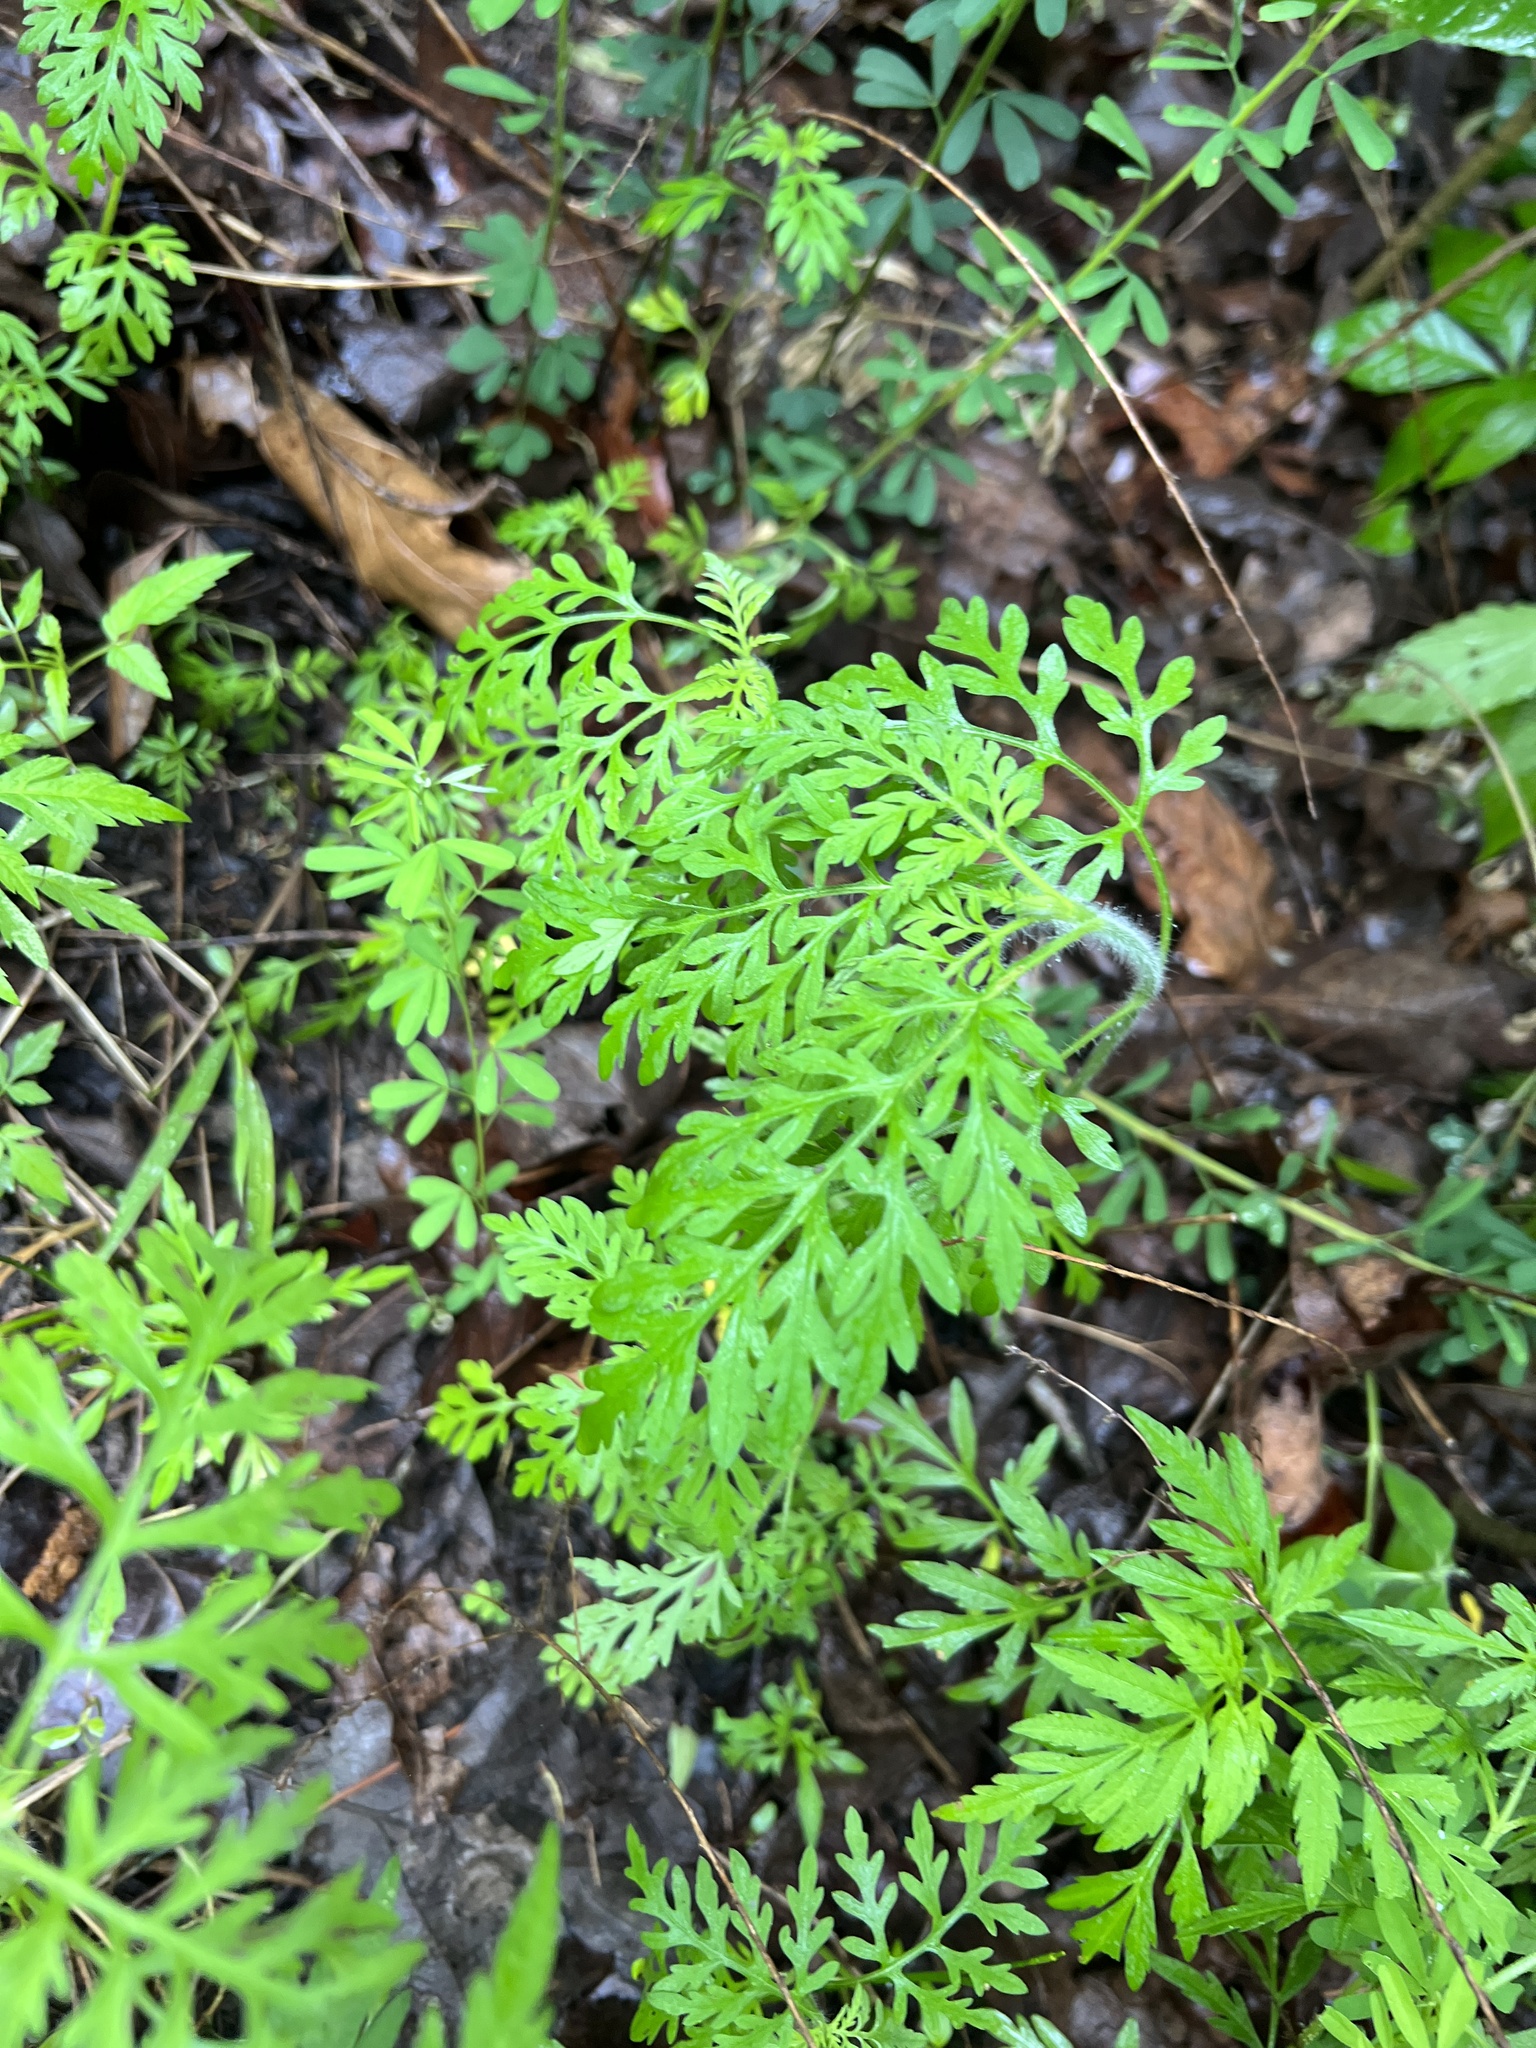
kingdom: Plantae
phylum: Tracheophyta
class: Magnoliopsida
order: Asterales
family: Asteraceae
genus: Ambrosia
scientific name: Ambrosia artemisiifolia
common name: Annual ragweed
